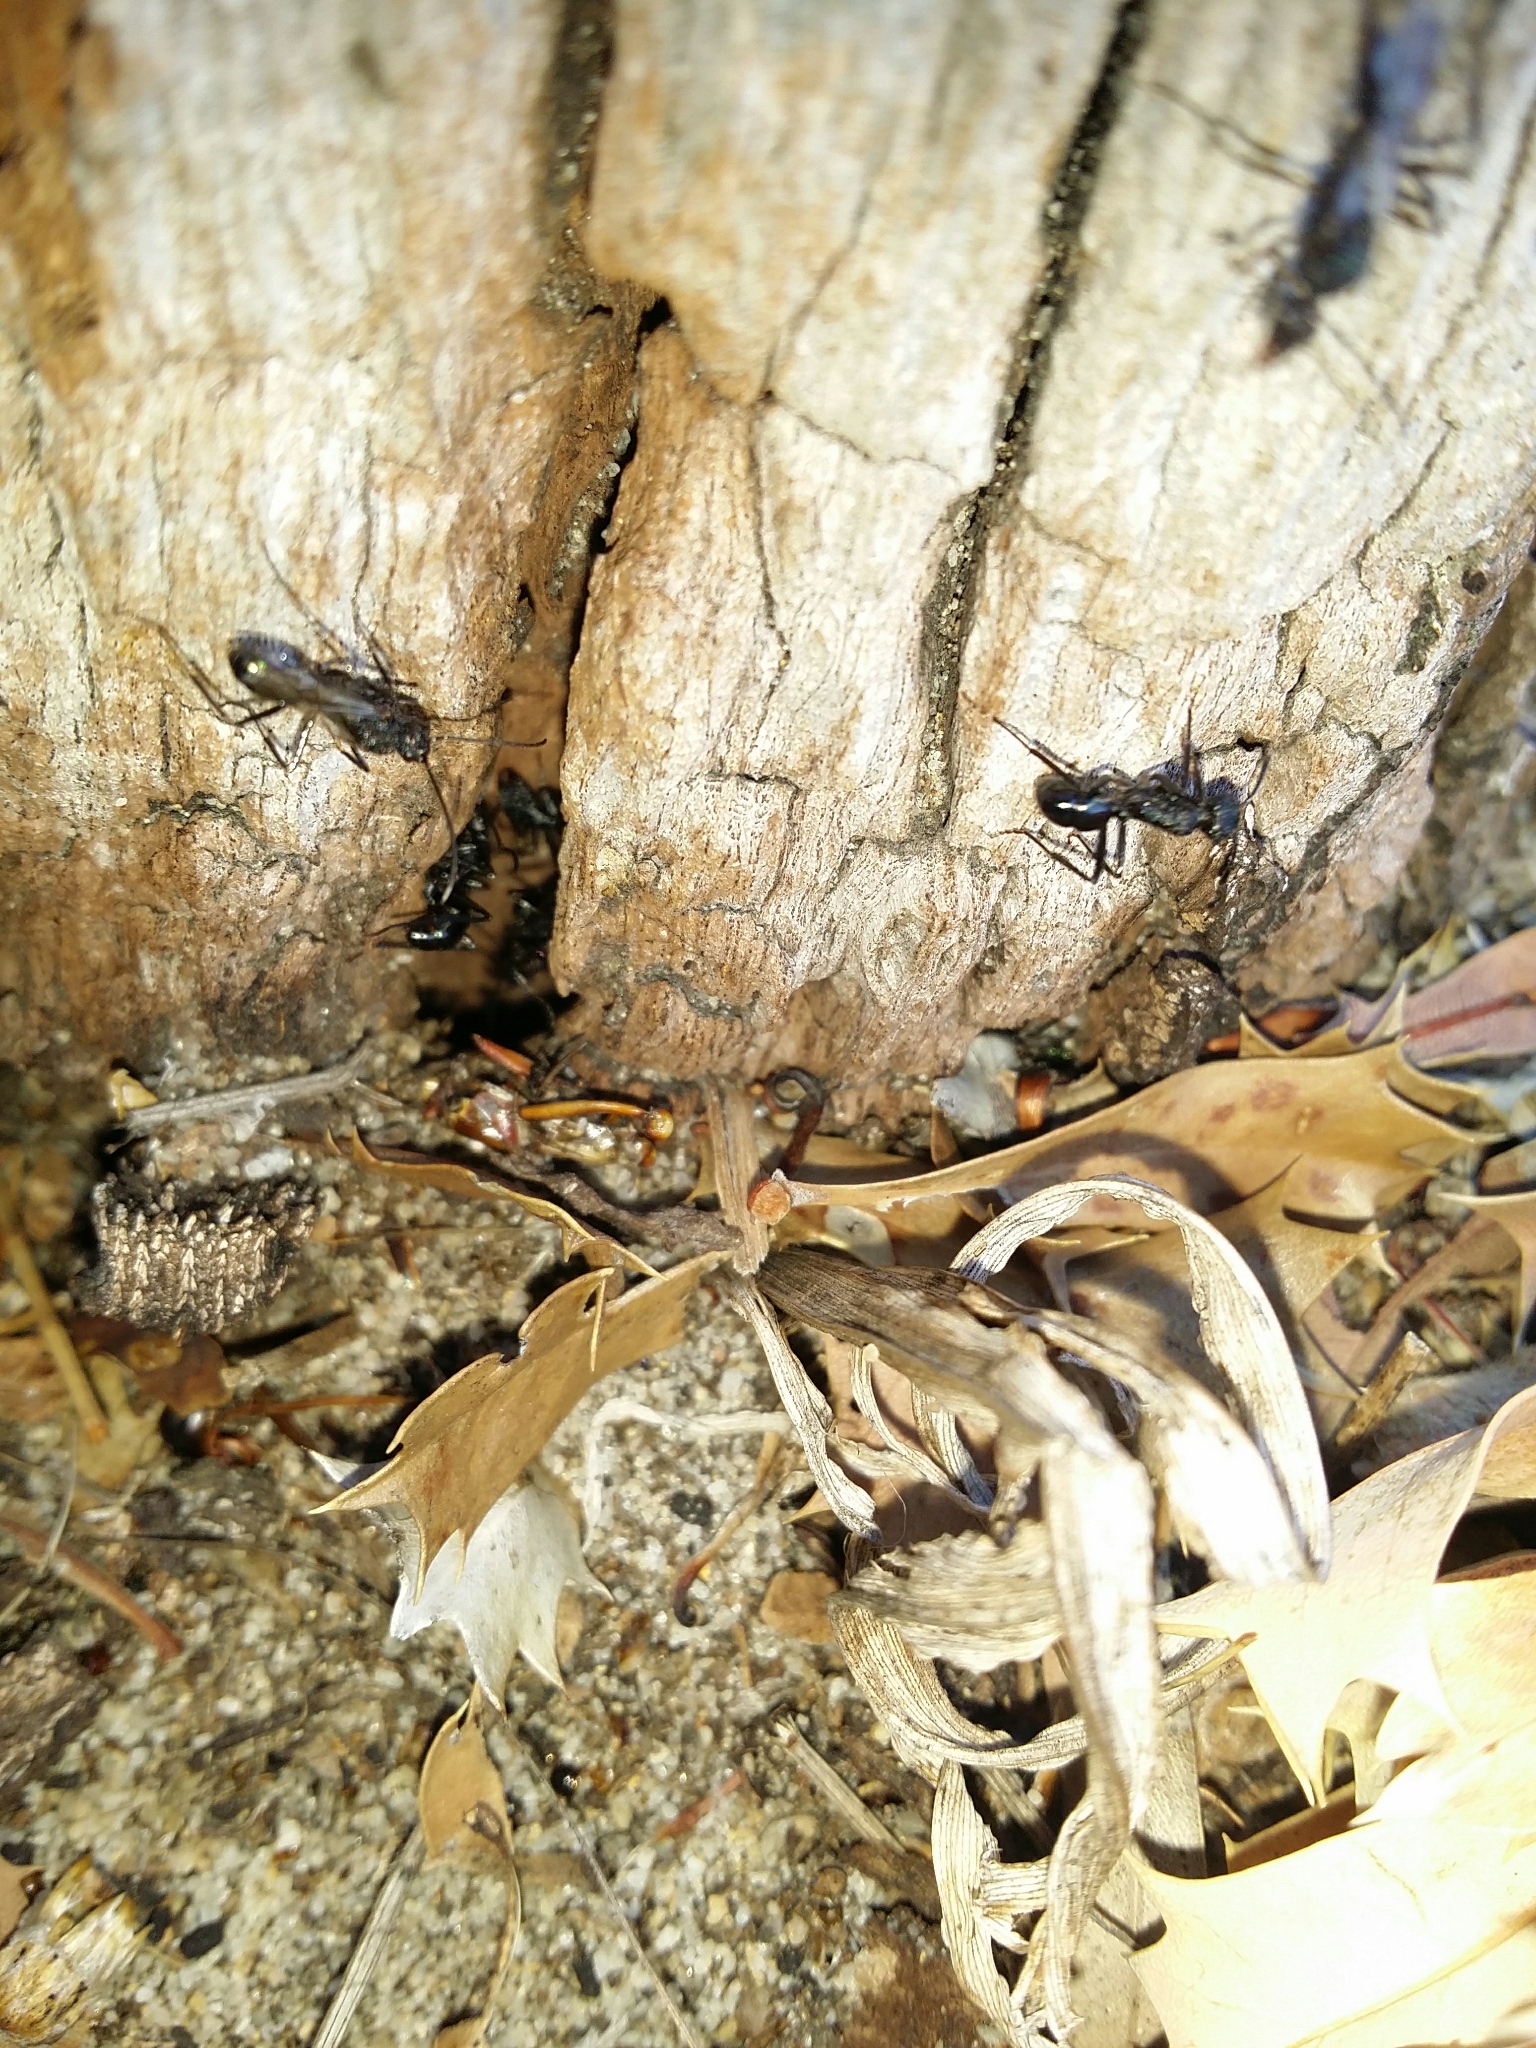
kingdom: Animalia
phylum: Arthropoda
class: Insecta
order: Hymenoptera
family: Formicidae
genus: Rhytidoponera
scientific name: Rhytidoponera metallica
